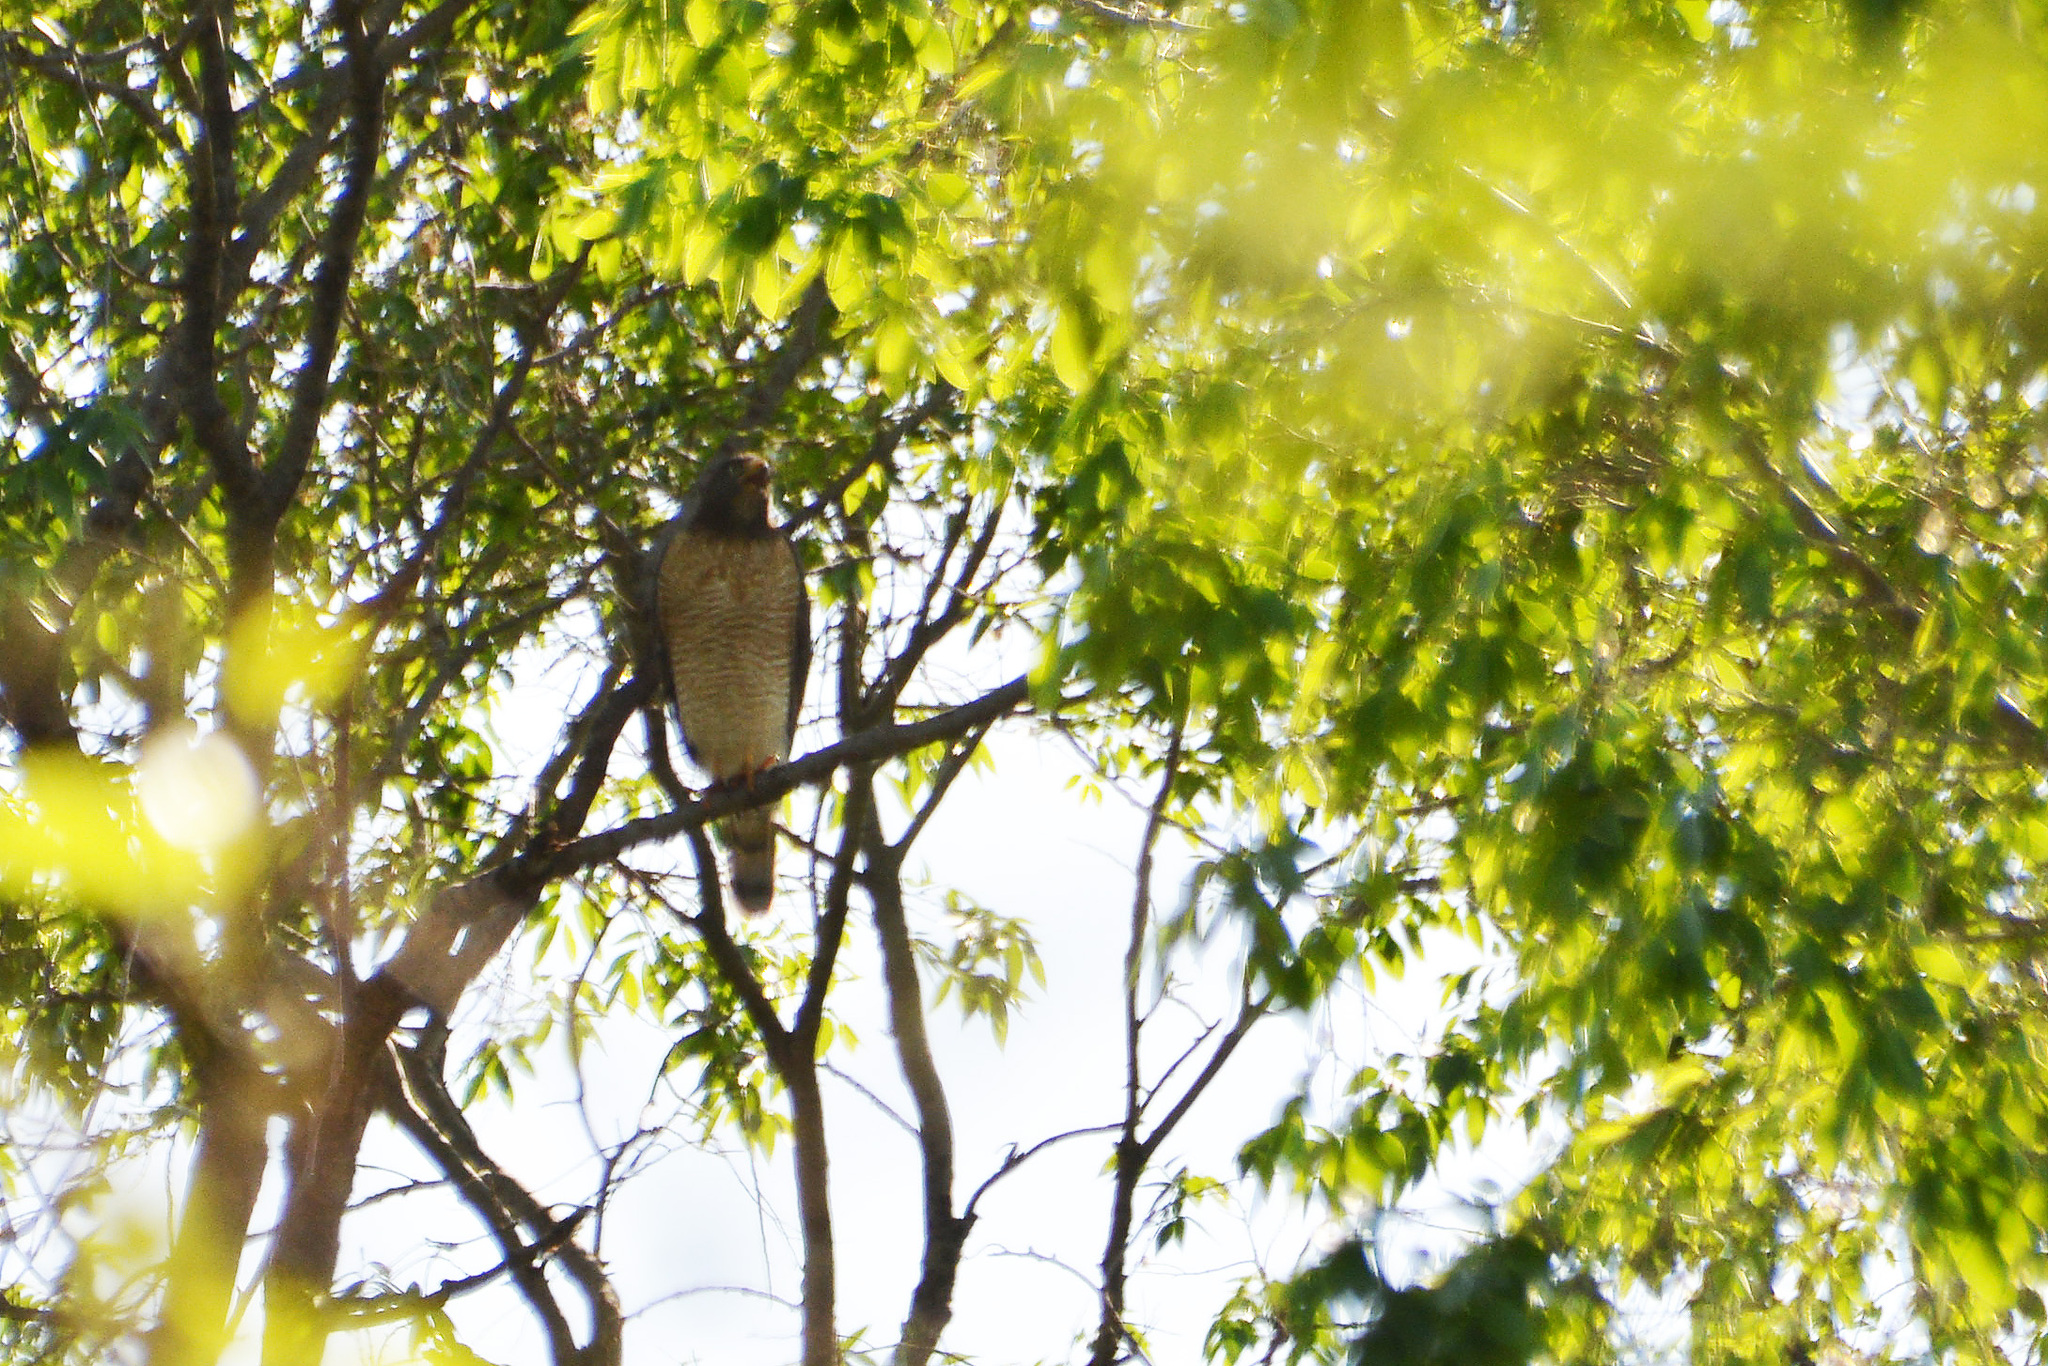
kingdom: Animalia
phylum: Chordata
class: Aves
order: Accipitriformes
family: Accipitridae
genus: Rupornis
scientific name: Rupornis magnirostris
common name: Roadside hawk
